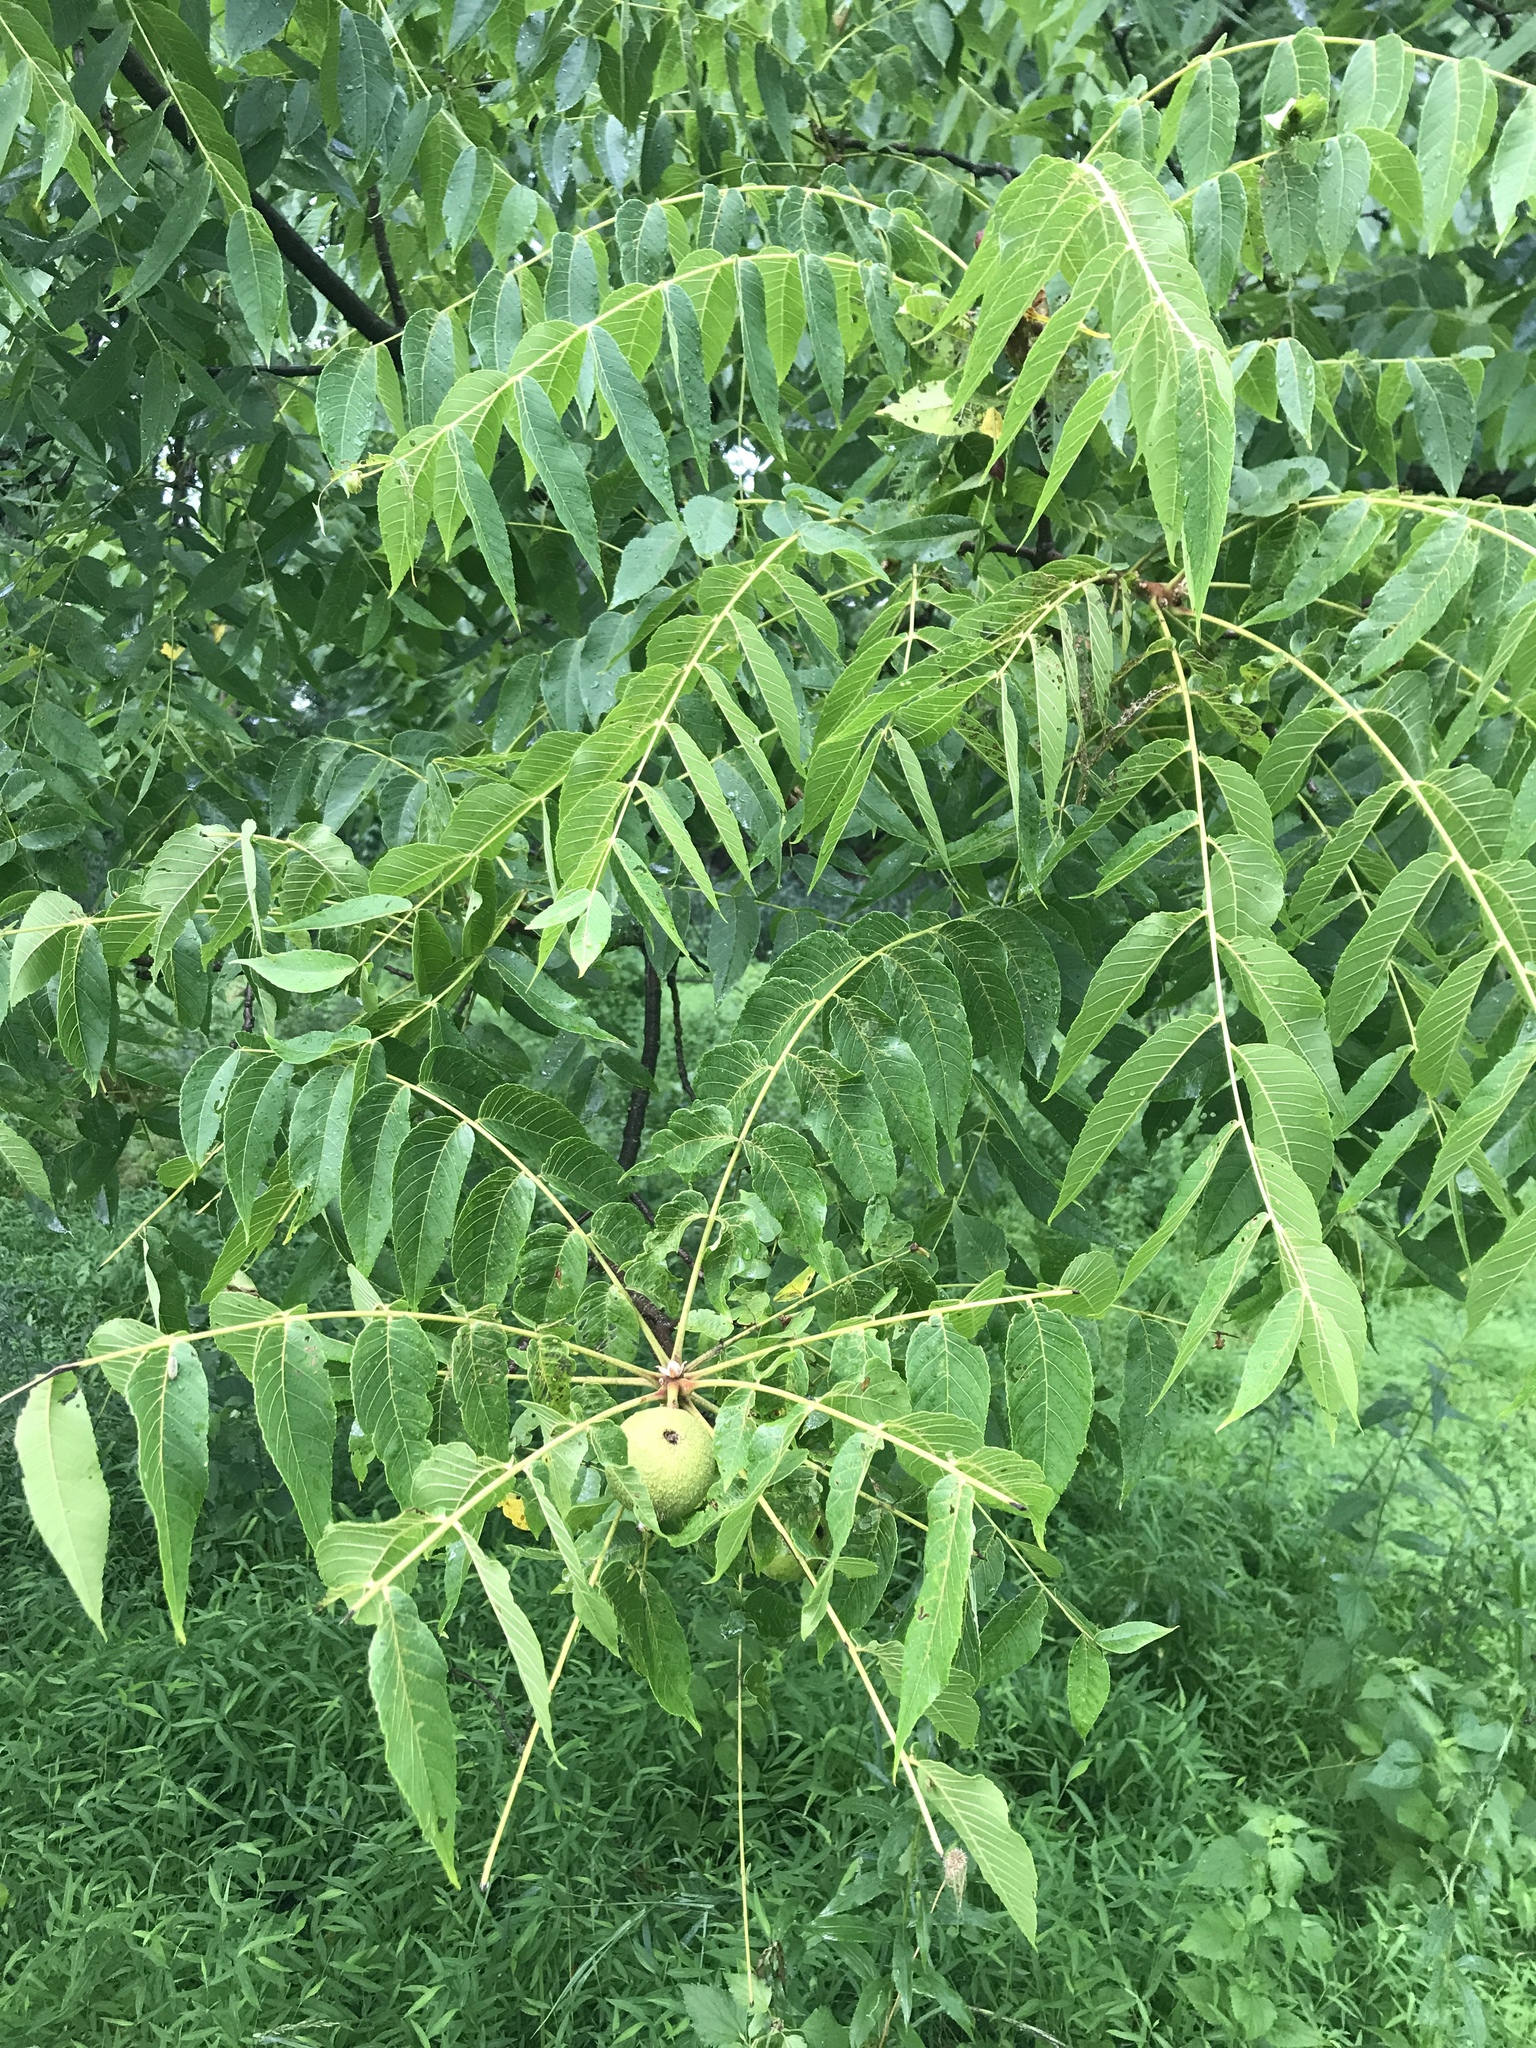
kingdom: Plantae
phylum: Tracheophyta
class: Magnoliopsida
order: Fagales
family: Juglandaceae
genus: Juglans
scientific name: Juglans nigra
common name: Black walnut
